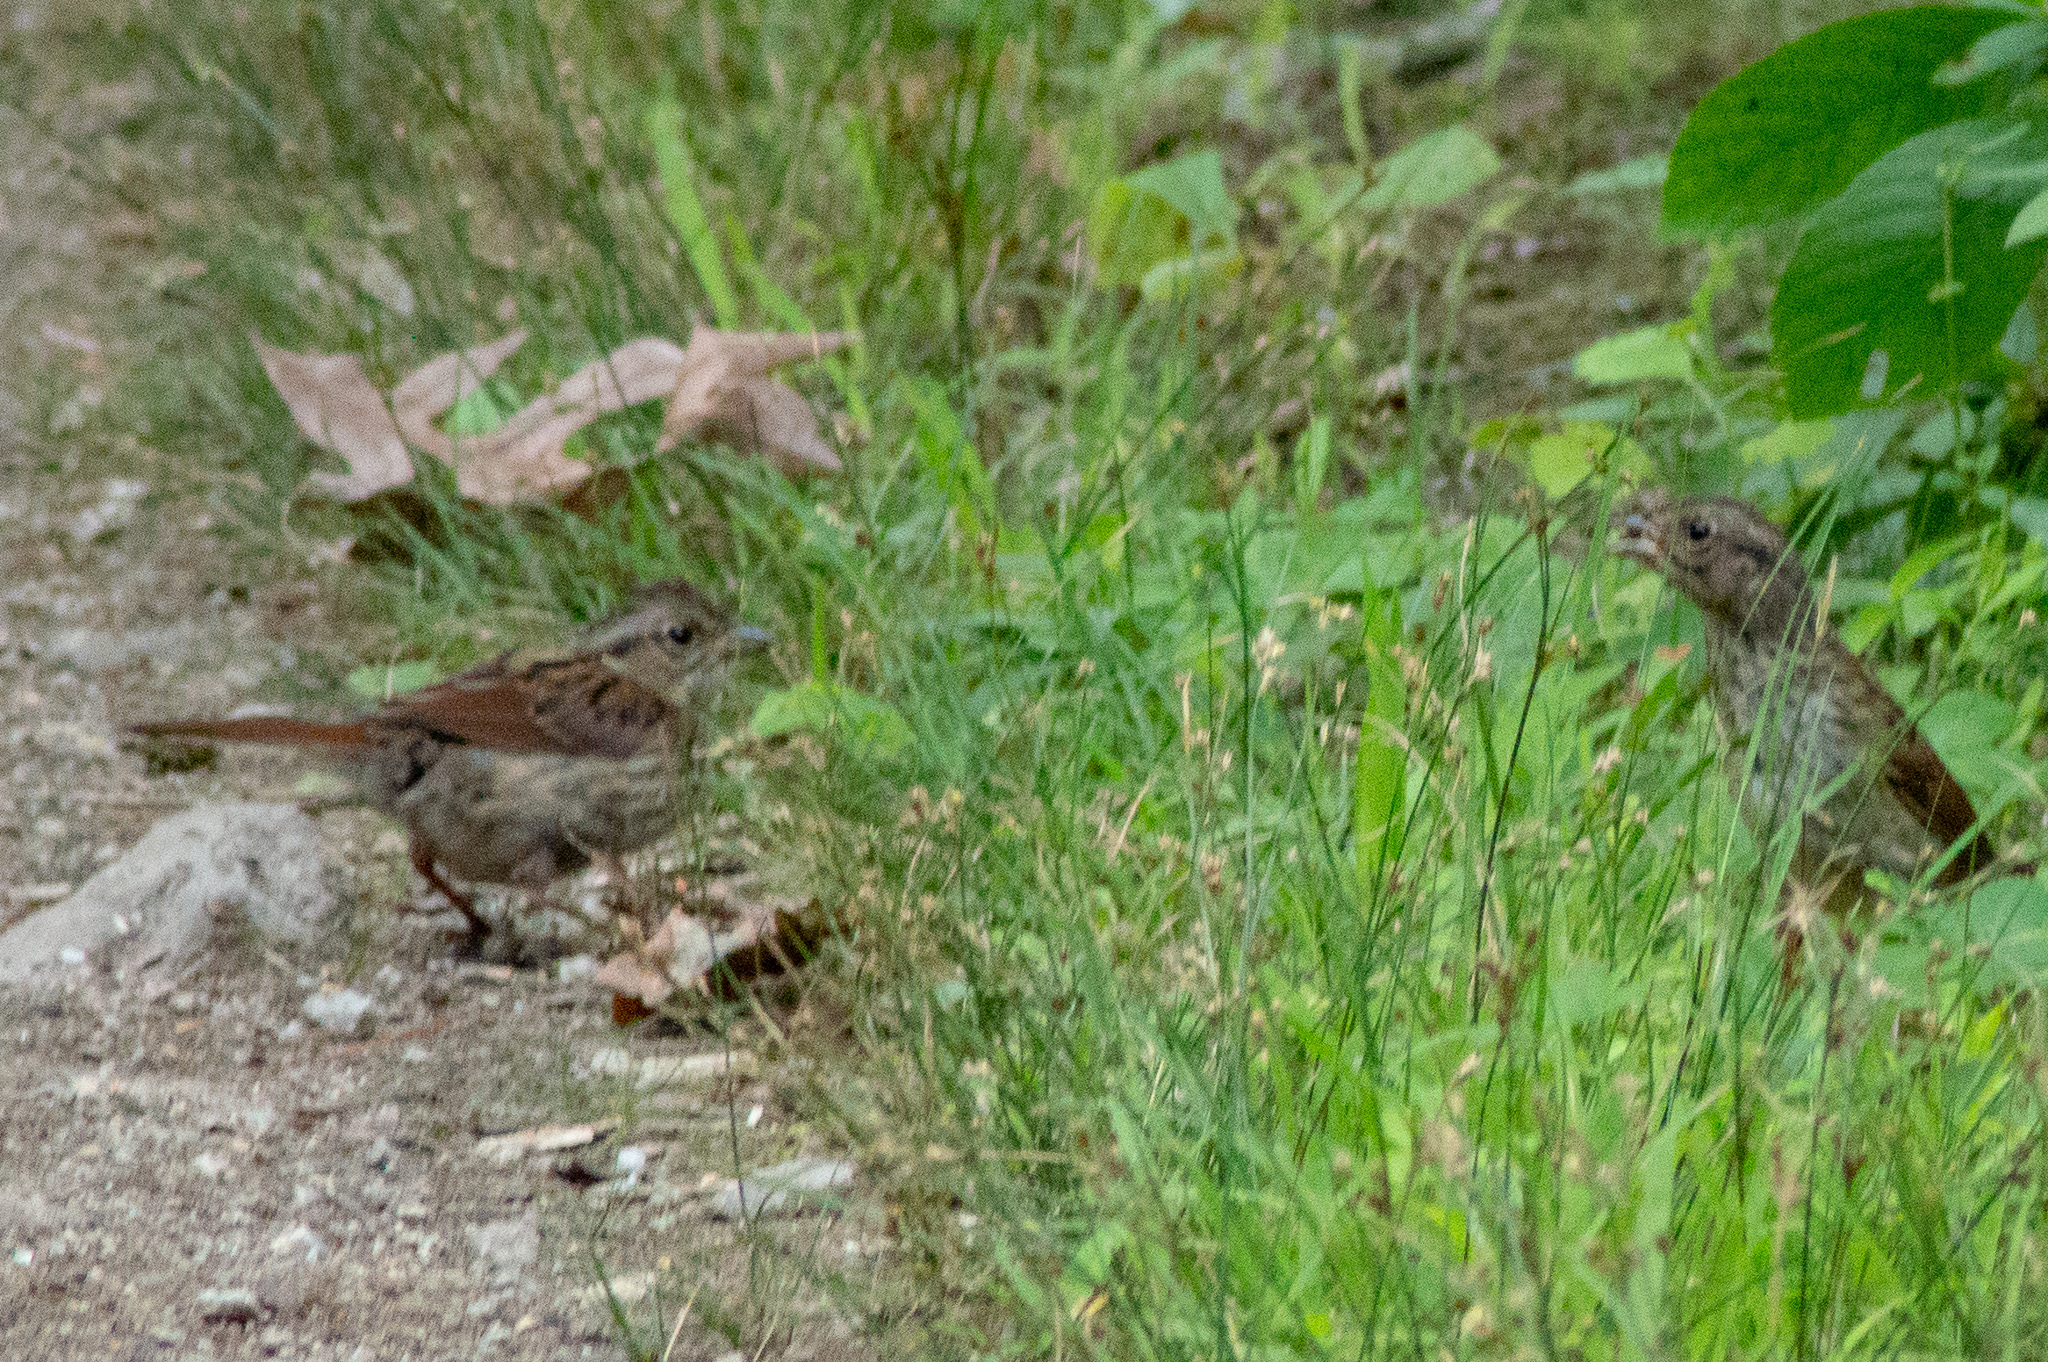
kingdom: Animalia
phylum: Chordata
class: Aves
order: Passeriformes
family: Passerellidae
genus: Melospiza
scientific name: Melospiza georgiana
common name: Swamp sparrow
